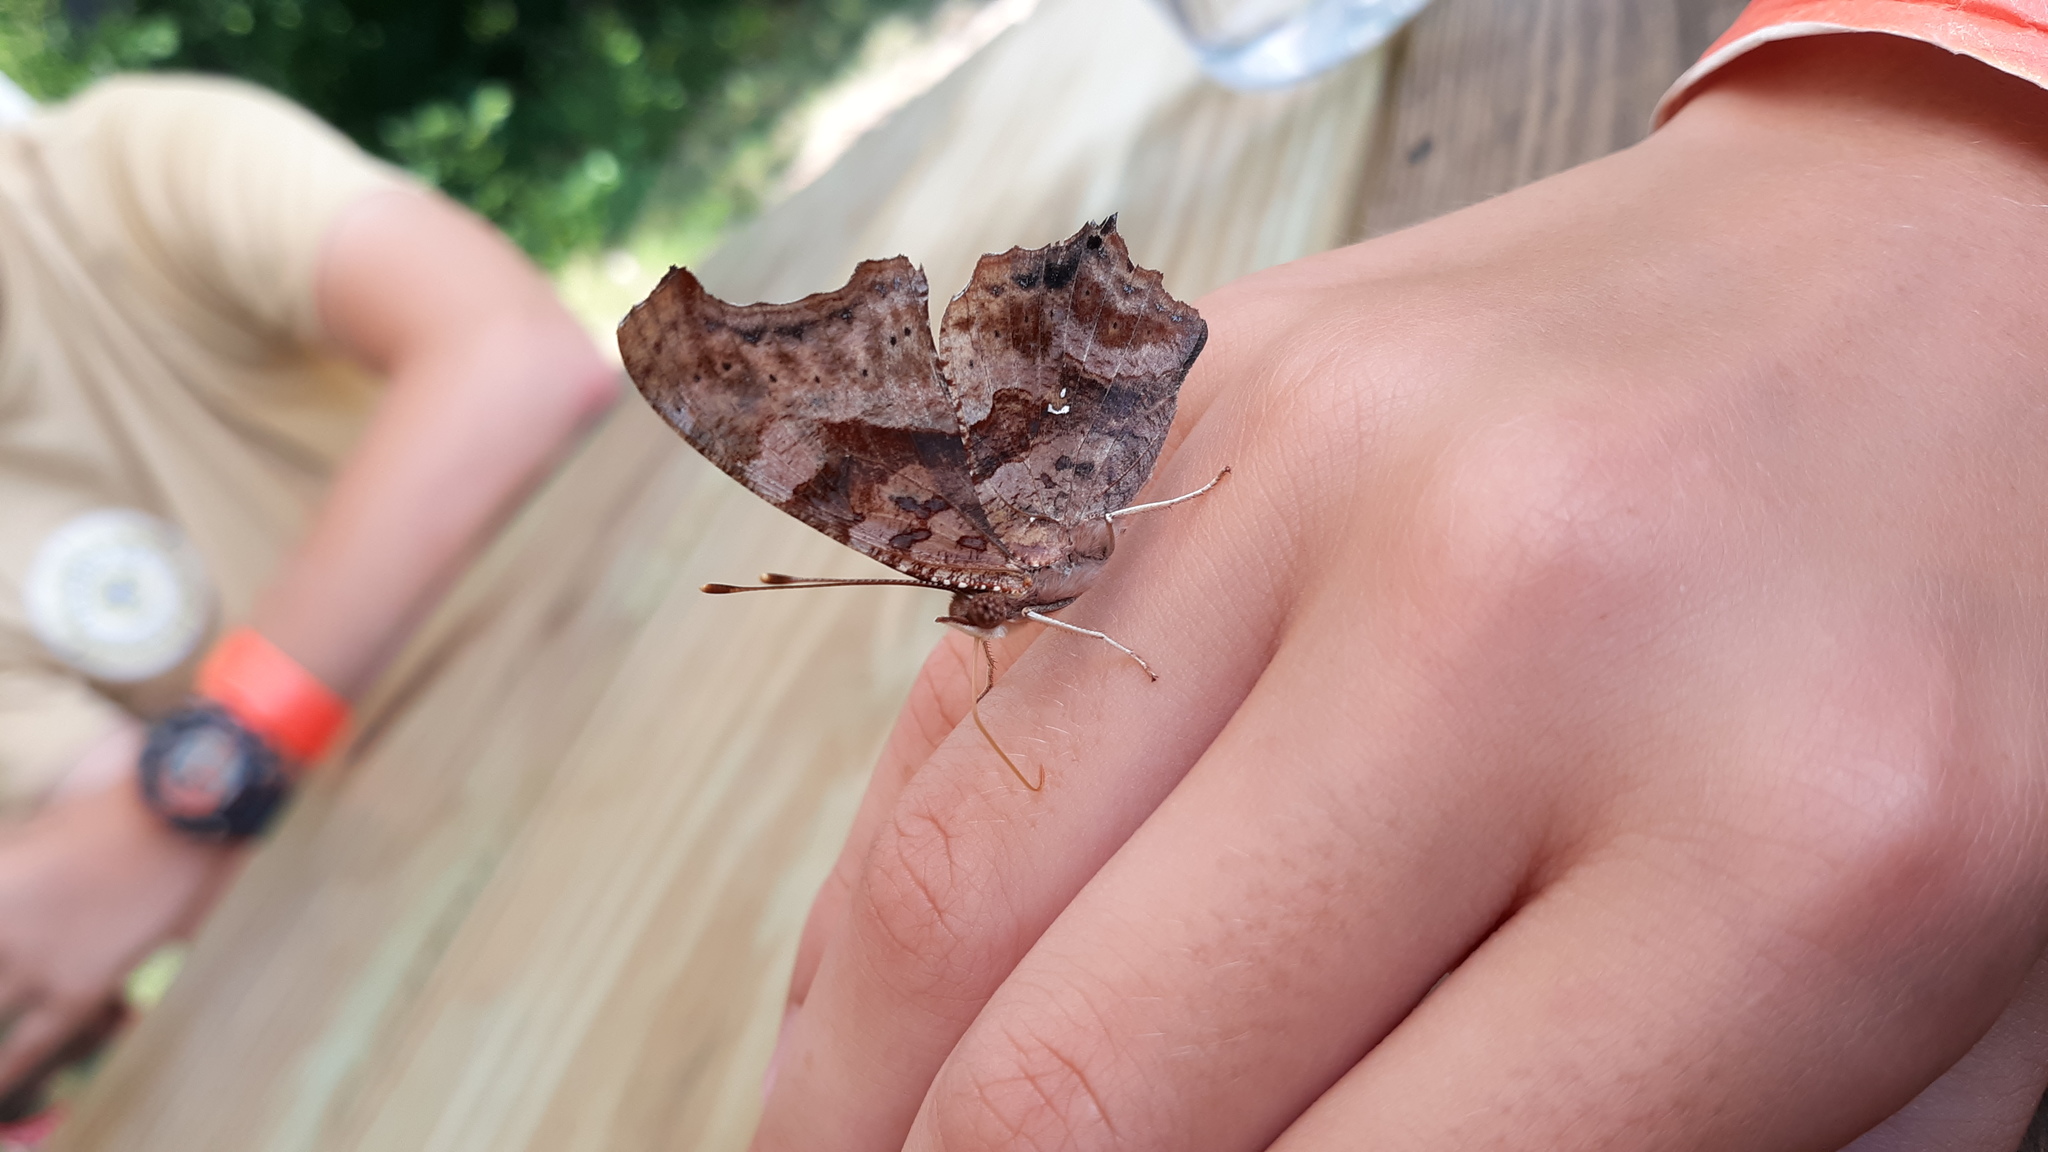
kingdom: Animalia
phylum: Arthropoda
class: Insecta
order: Lepidoptera
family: Nymphalidae
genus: Polygonia
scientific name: Polygonia interrogationis
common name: Question mark
